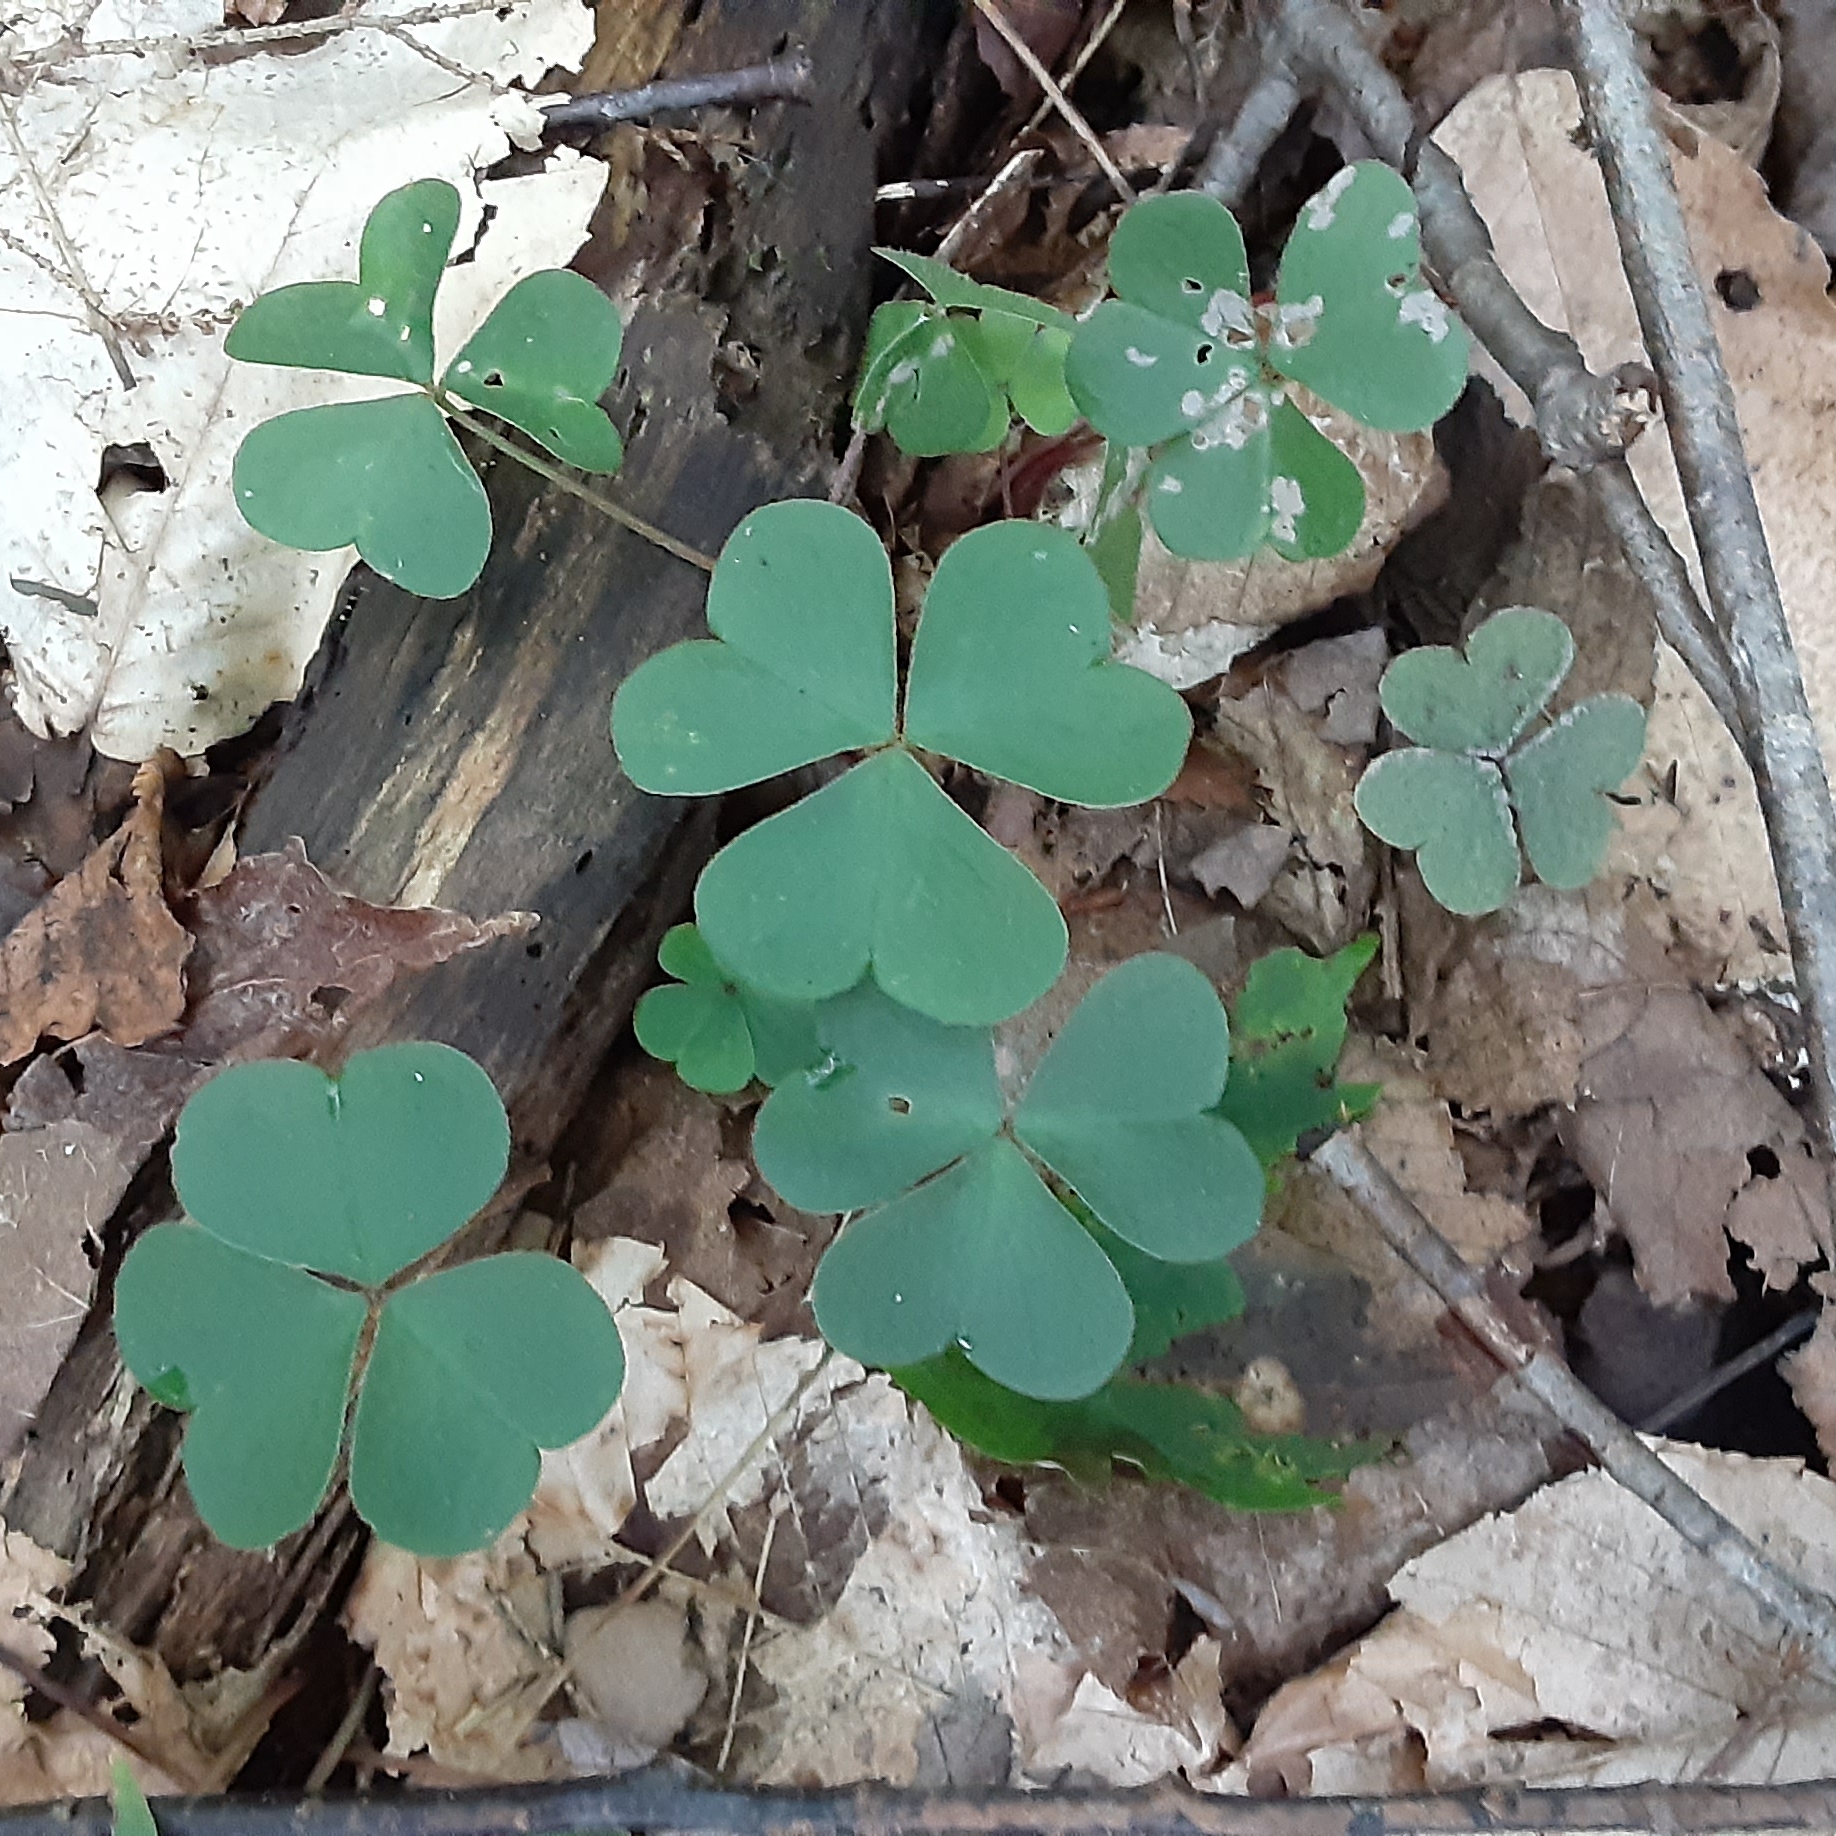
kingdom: Plantae
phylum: Tracheophyta
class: Magnoliopsida
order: Oxalidales
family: Oxalidaceae
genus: Oxalis
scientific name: Oxalis montana
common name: American wood-sorrel
